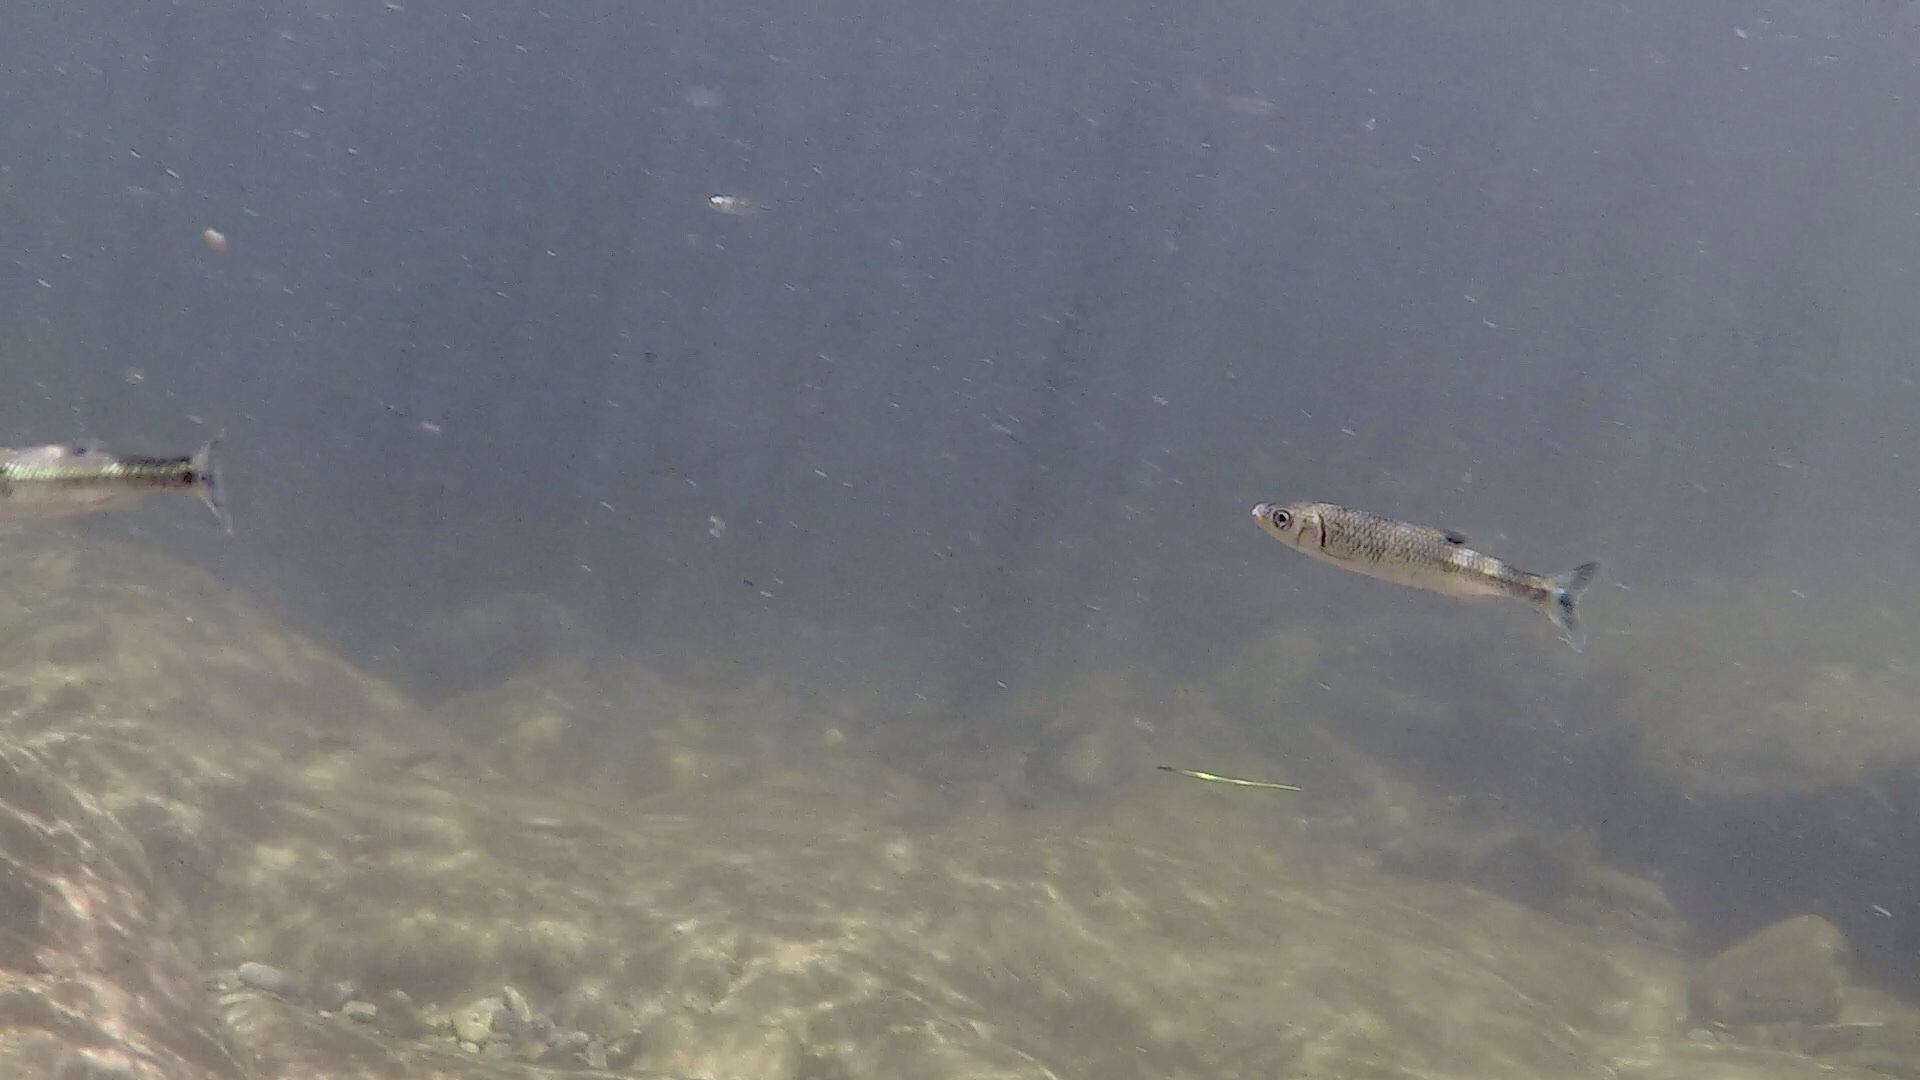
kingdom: Animalia
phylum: Chordata
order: Cypriniformes
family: Cyprinidae
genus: Luxilus
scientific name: Luxilus
